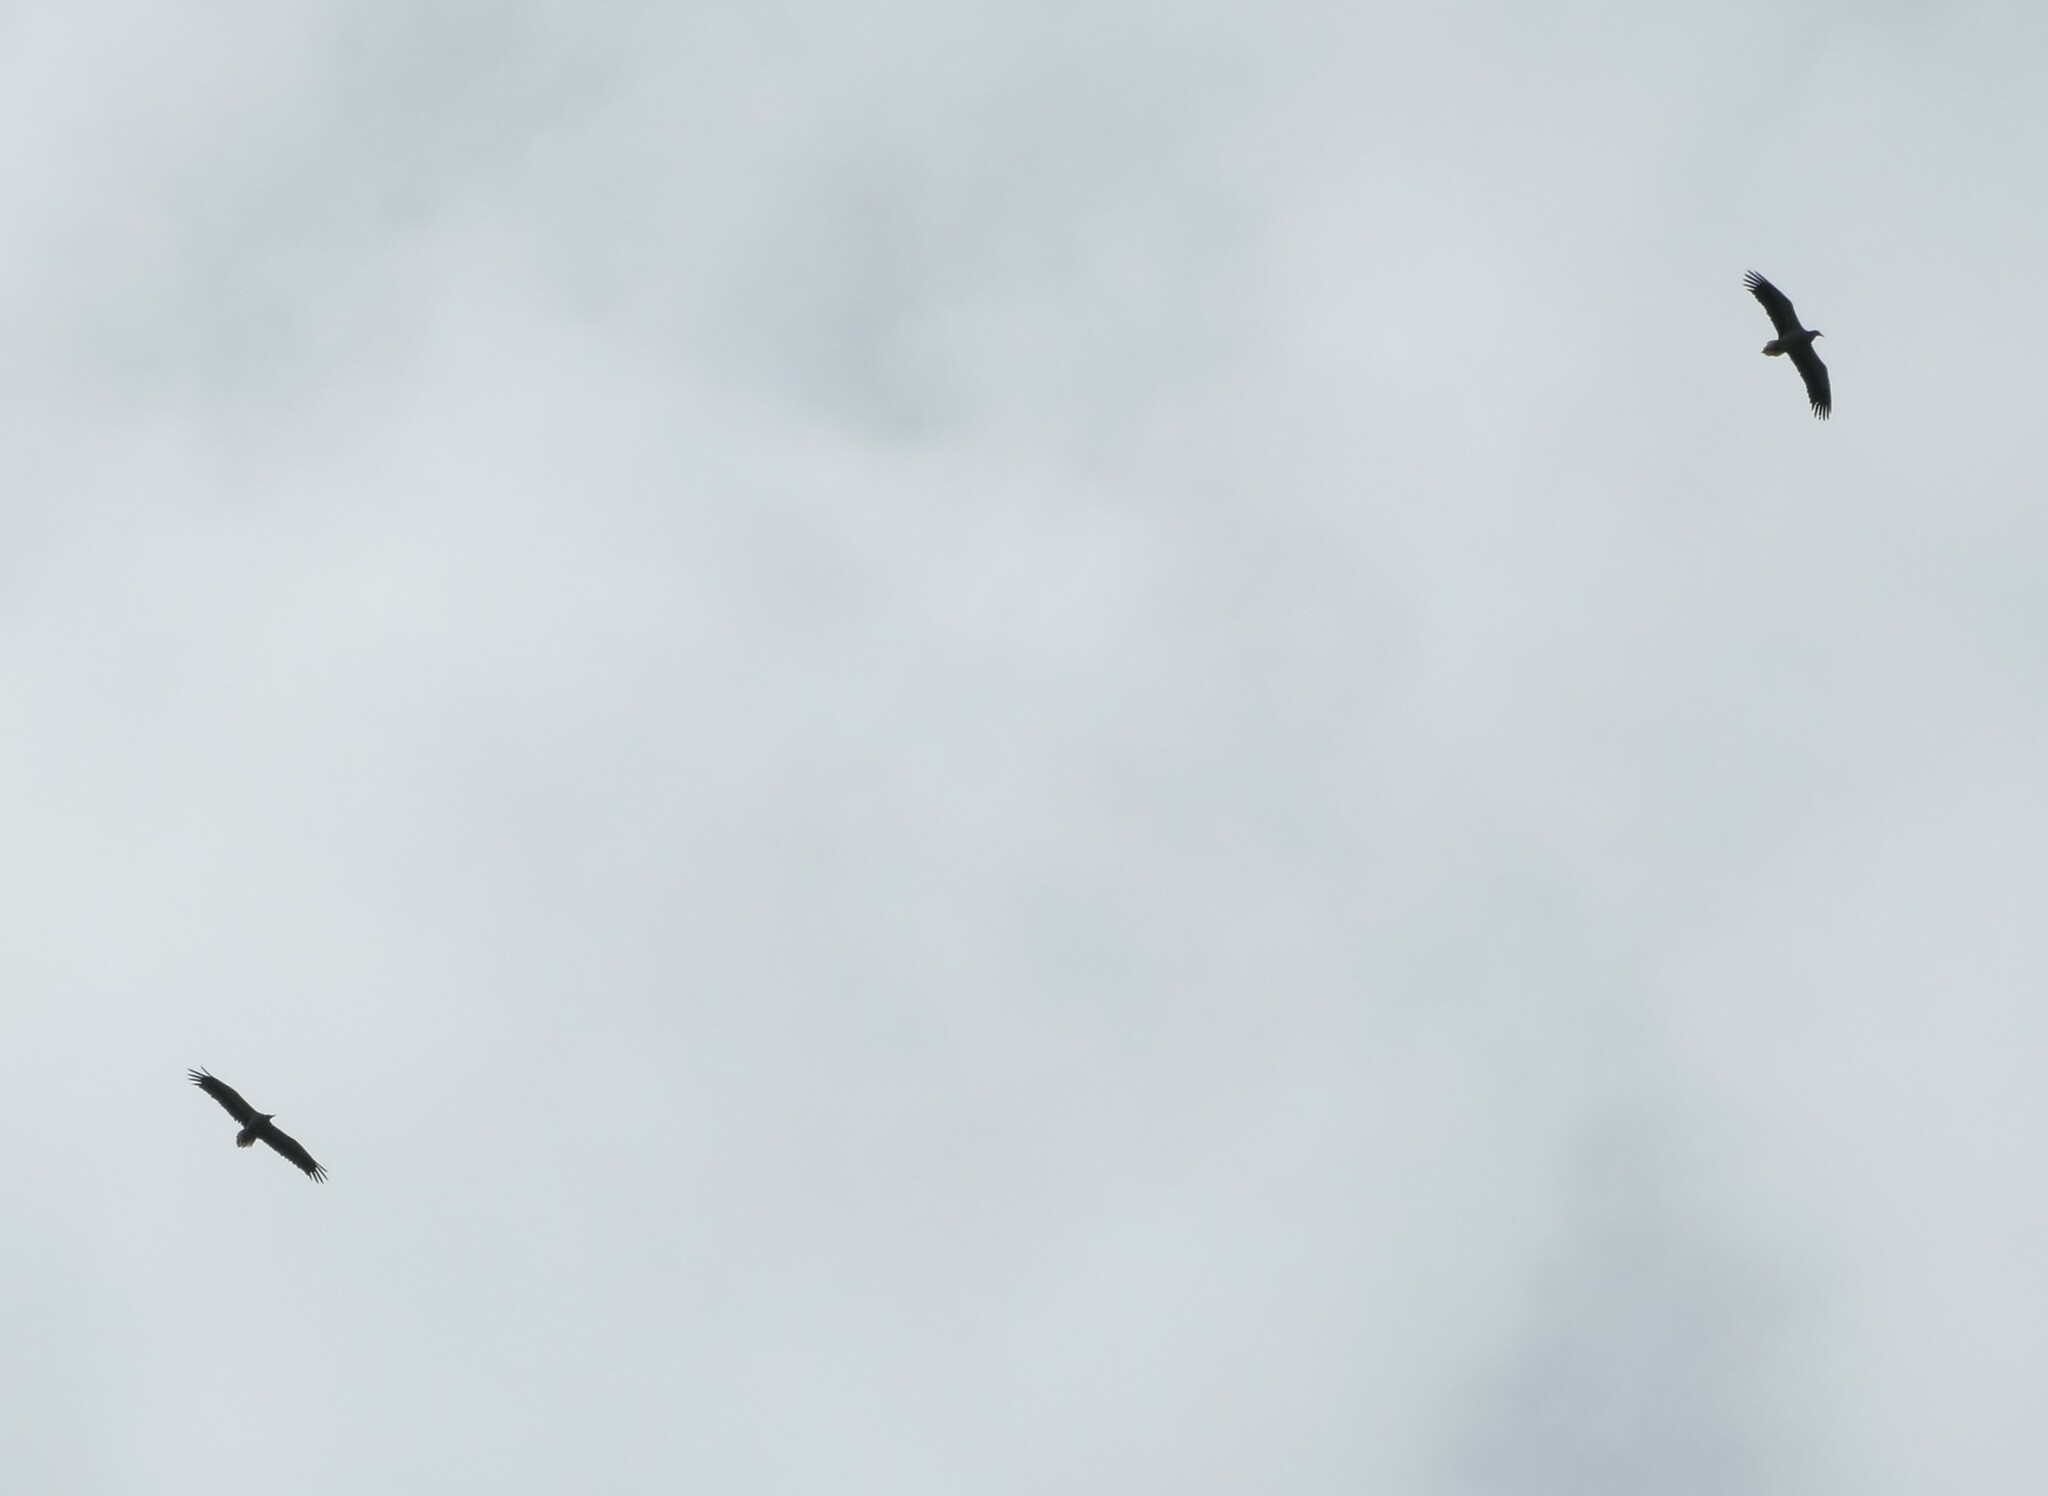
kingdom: Animalia
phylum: Chordata
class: Aves
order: Accipitriformes
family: Accipitridae
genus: Neophron
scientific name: Neophron percnopterus
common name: Egyptian vulture
